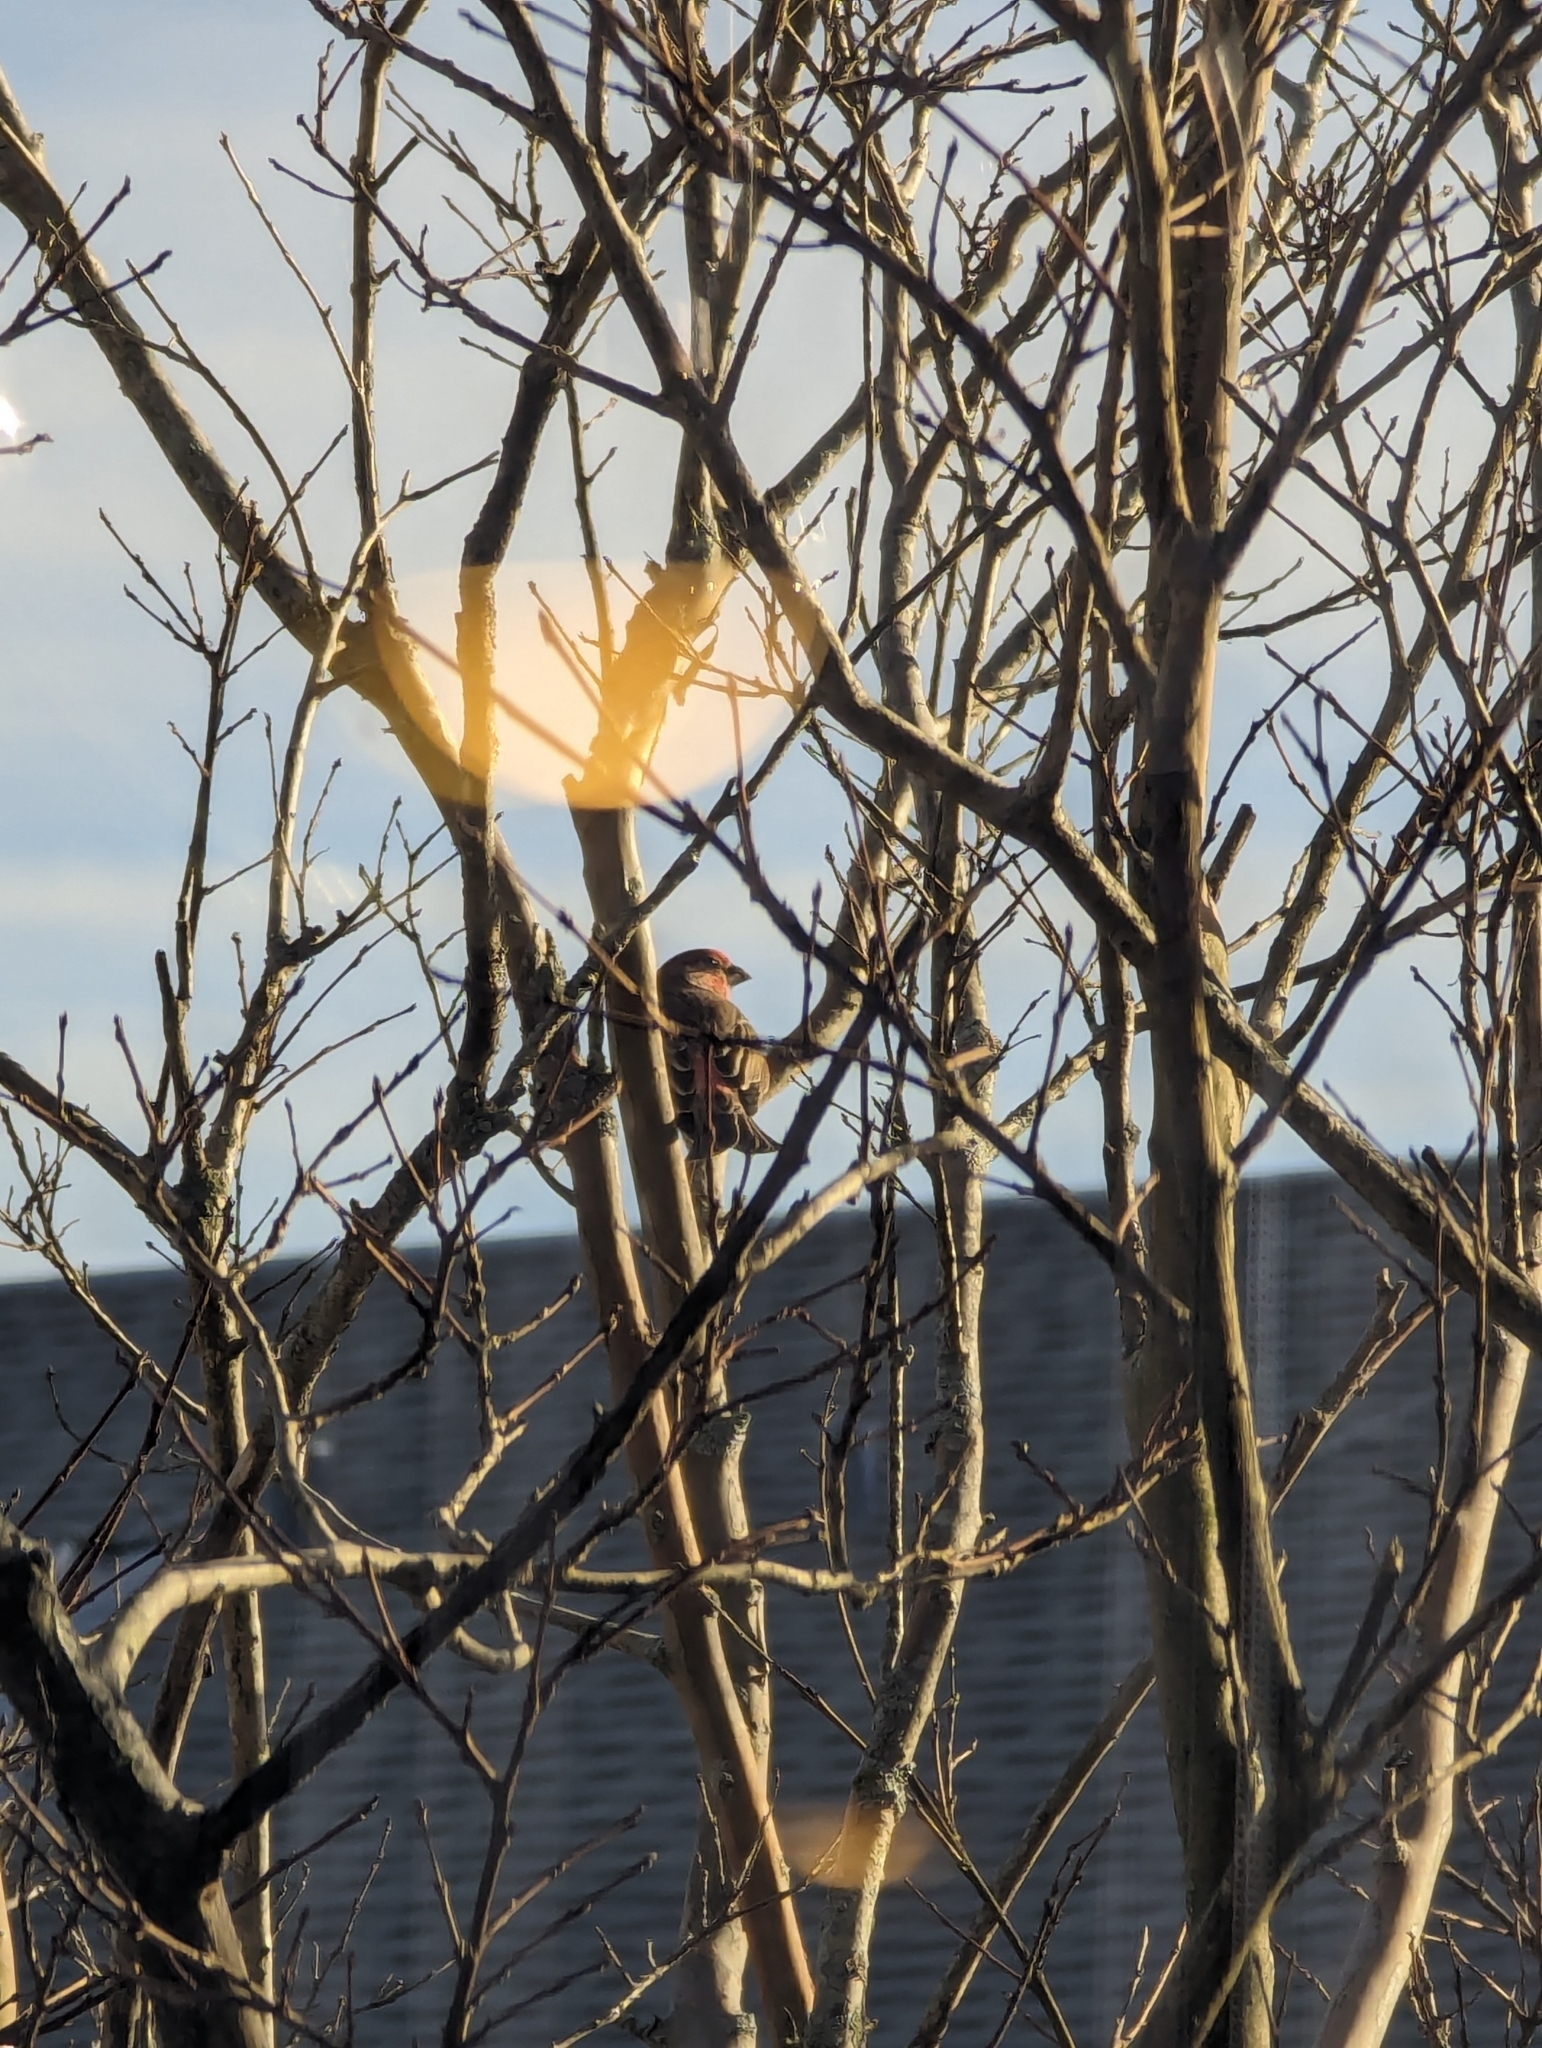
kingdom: Animalia
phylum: Chordata
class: Aves
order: Passeriformes
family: Fringillidae
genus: Haemorhous
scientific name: Haemorhous mexicanus
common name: House finch
